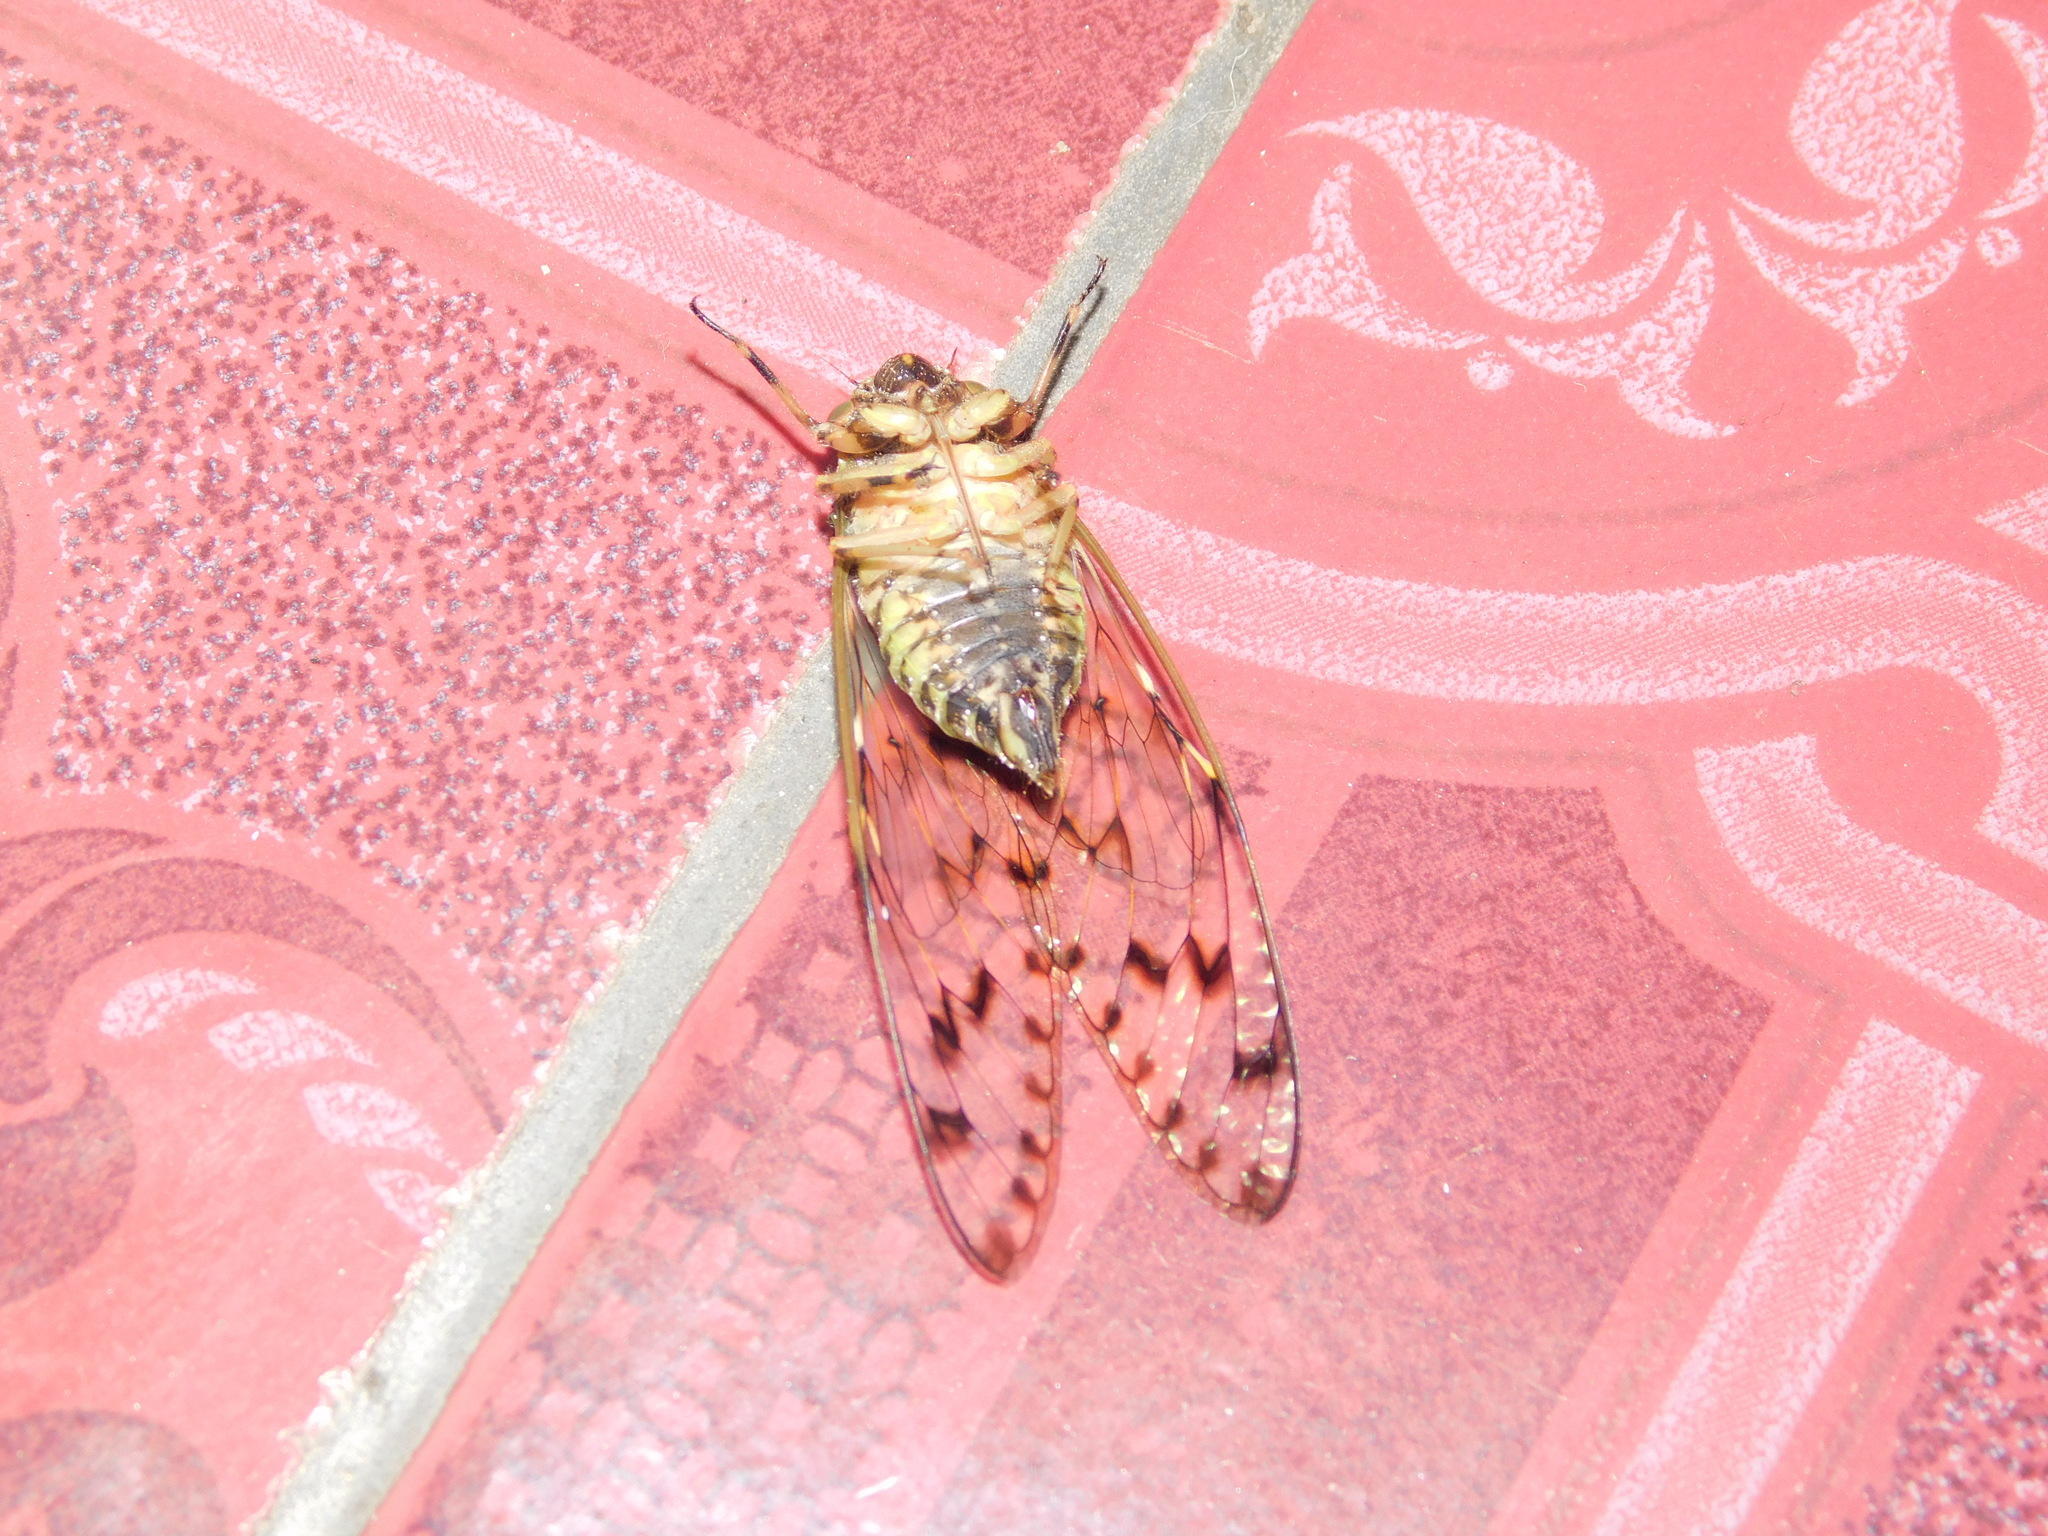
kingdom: Animalia
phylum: Arthropoda
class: Insecta
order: Hemiptera
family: Cicadidae
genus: Pomponia
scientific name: Pomponia
